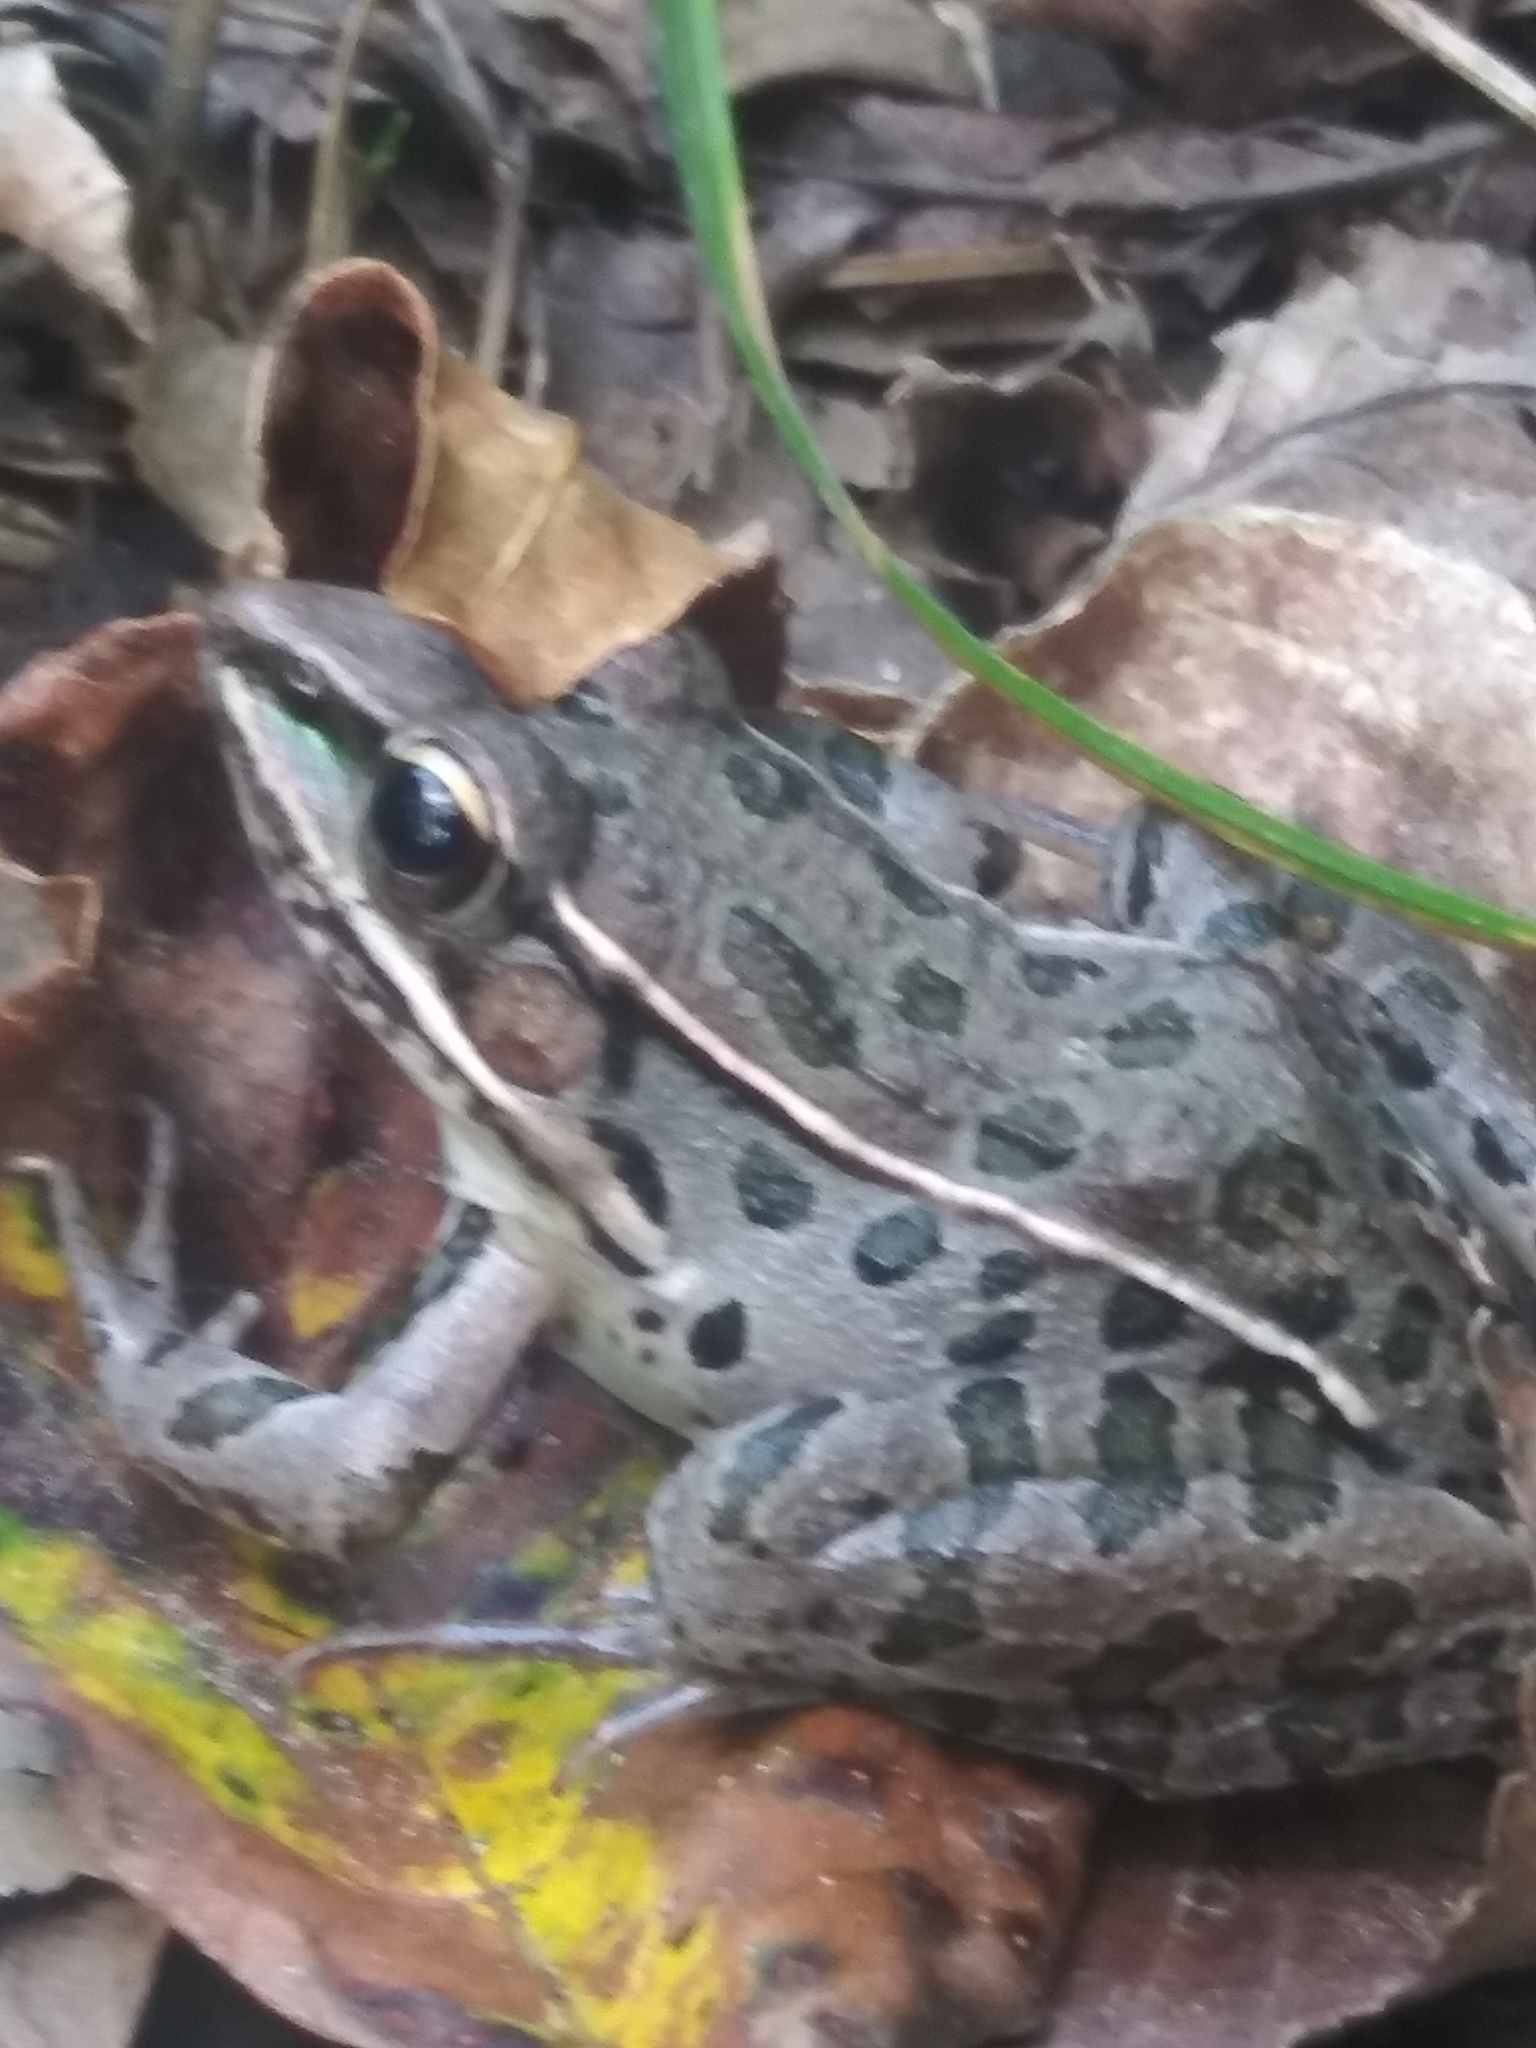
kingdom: Animalia
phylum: Chordata
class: Amphibia
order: Anura
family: Ranidae
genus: Lithobates
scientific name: Lithobates sphenocephalus
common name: Southern leopard frog
